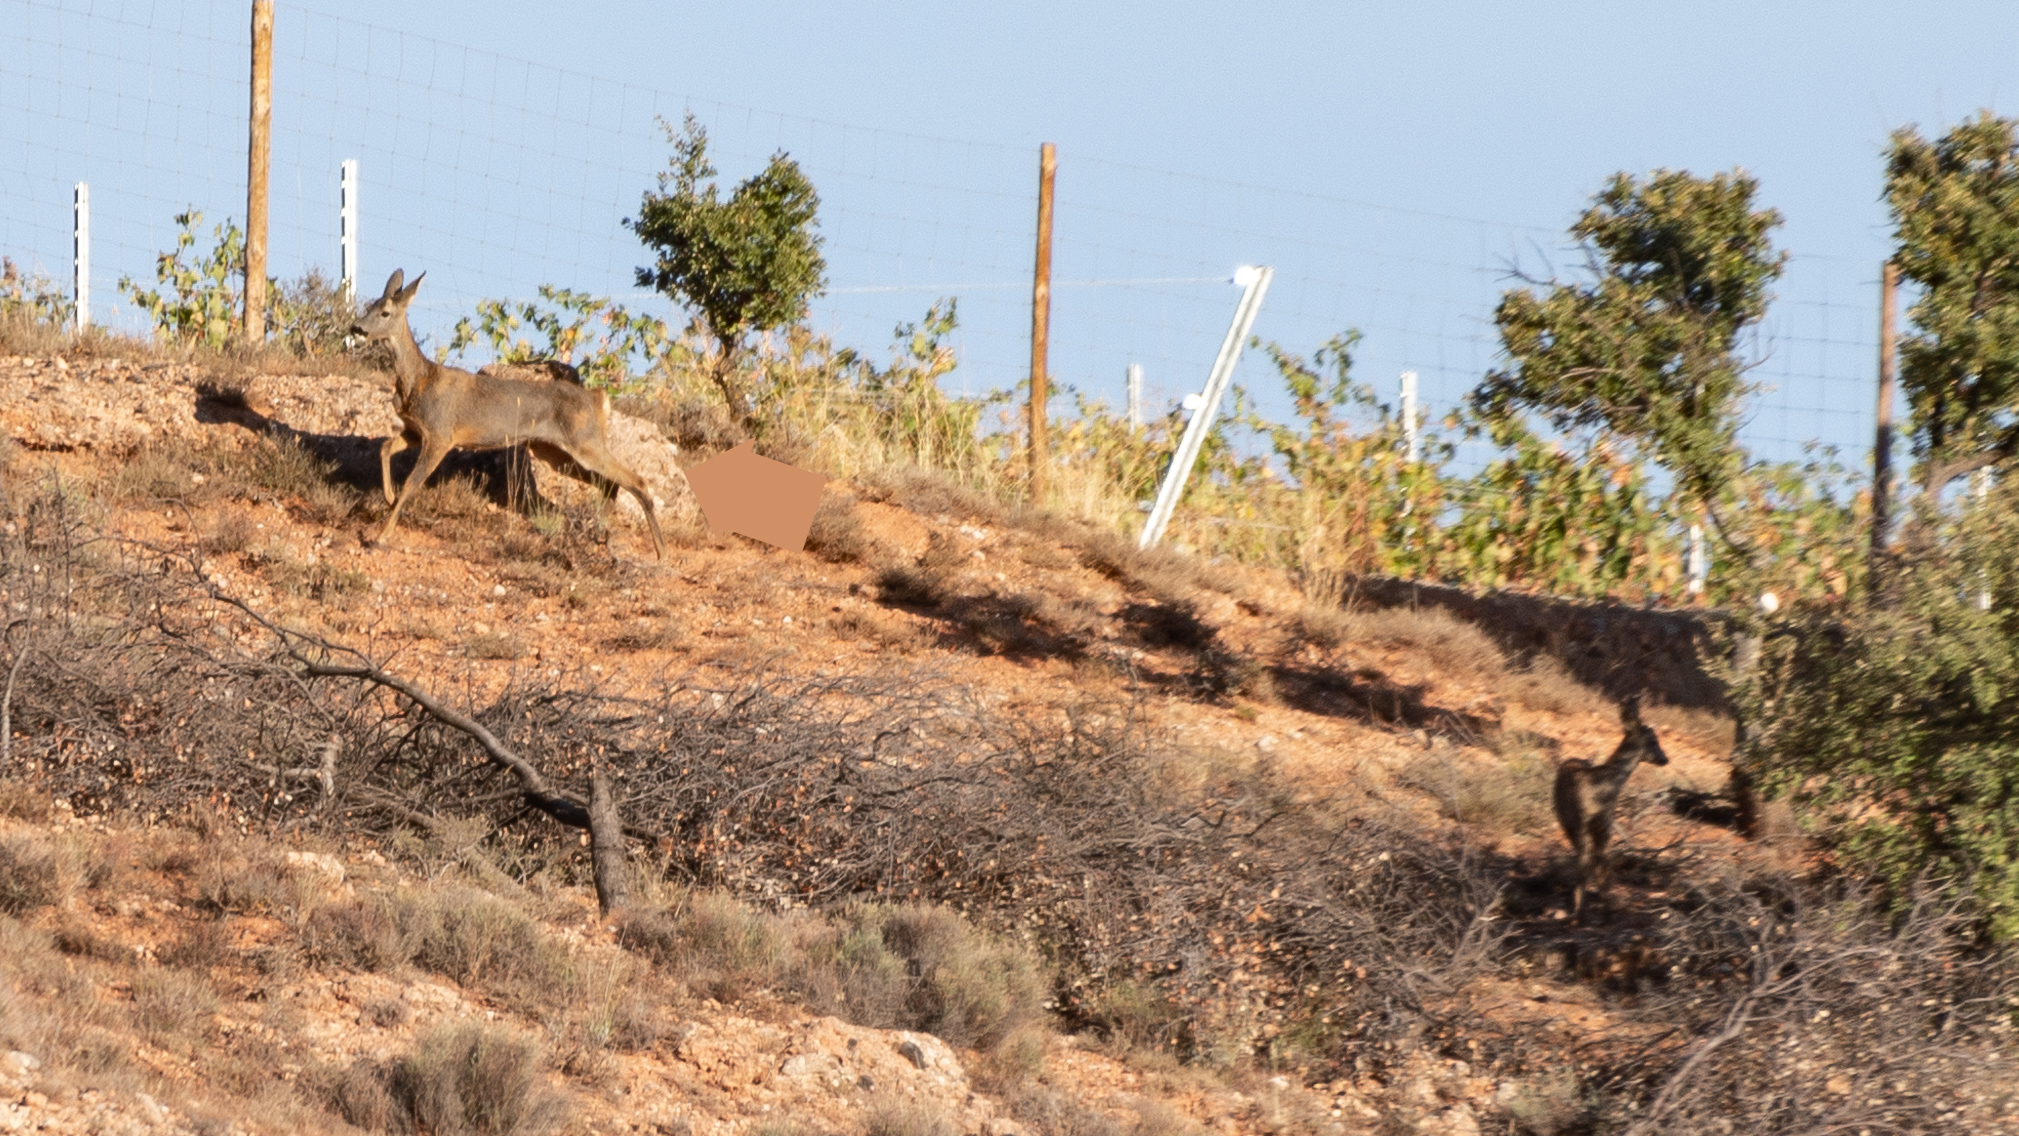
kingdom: Animalia
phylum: Chordata
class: Mammalia
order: Artiodactyla
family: Cervidae
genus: Capreolus
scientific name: Capreolus capreolus
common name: Western roe deer
